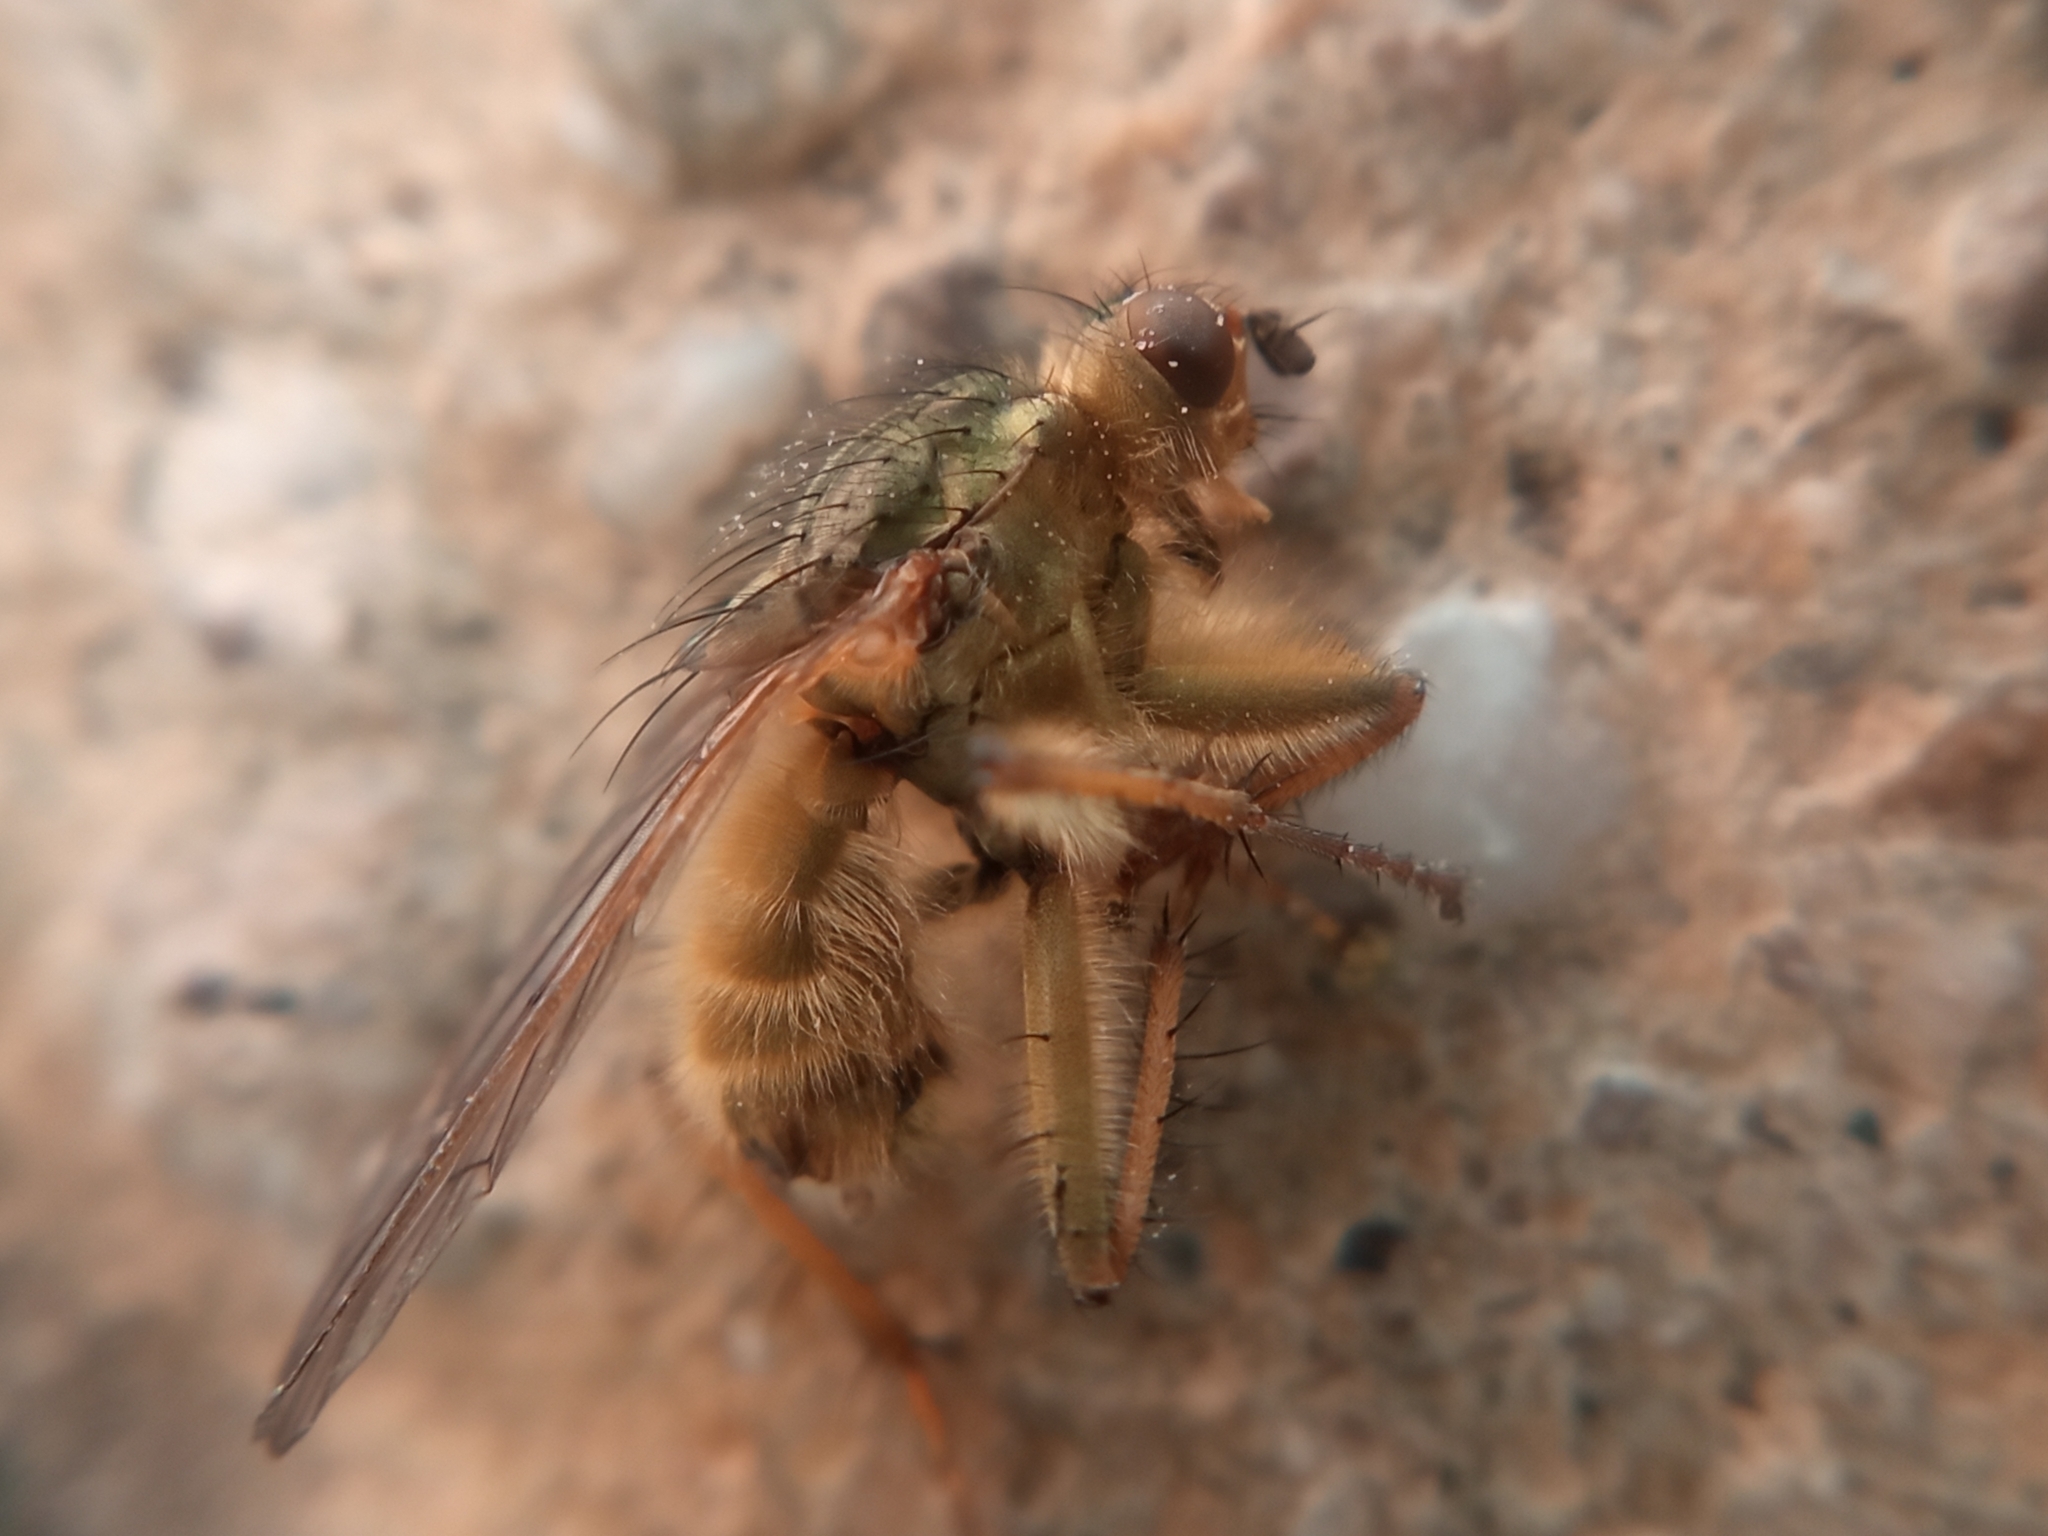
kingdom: Animalia
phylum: Arthropoda
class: Insecta
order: Diptera
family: Scathophagidae
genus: Scathophaga
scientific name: Scathophaga stercoraria
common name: Yellow dung fly
